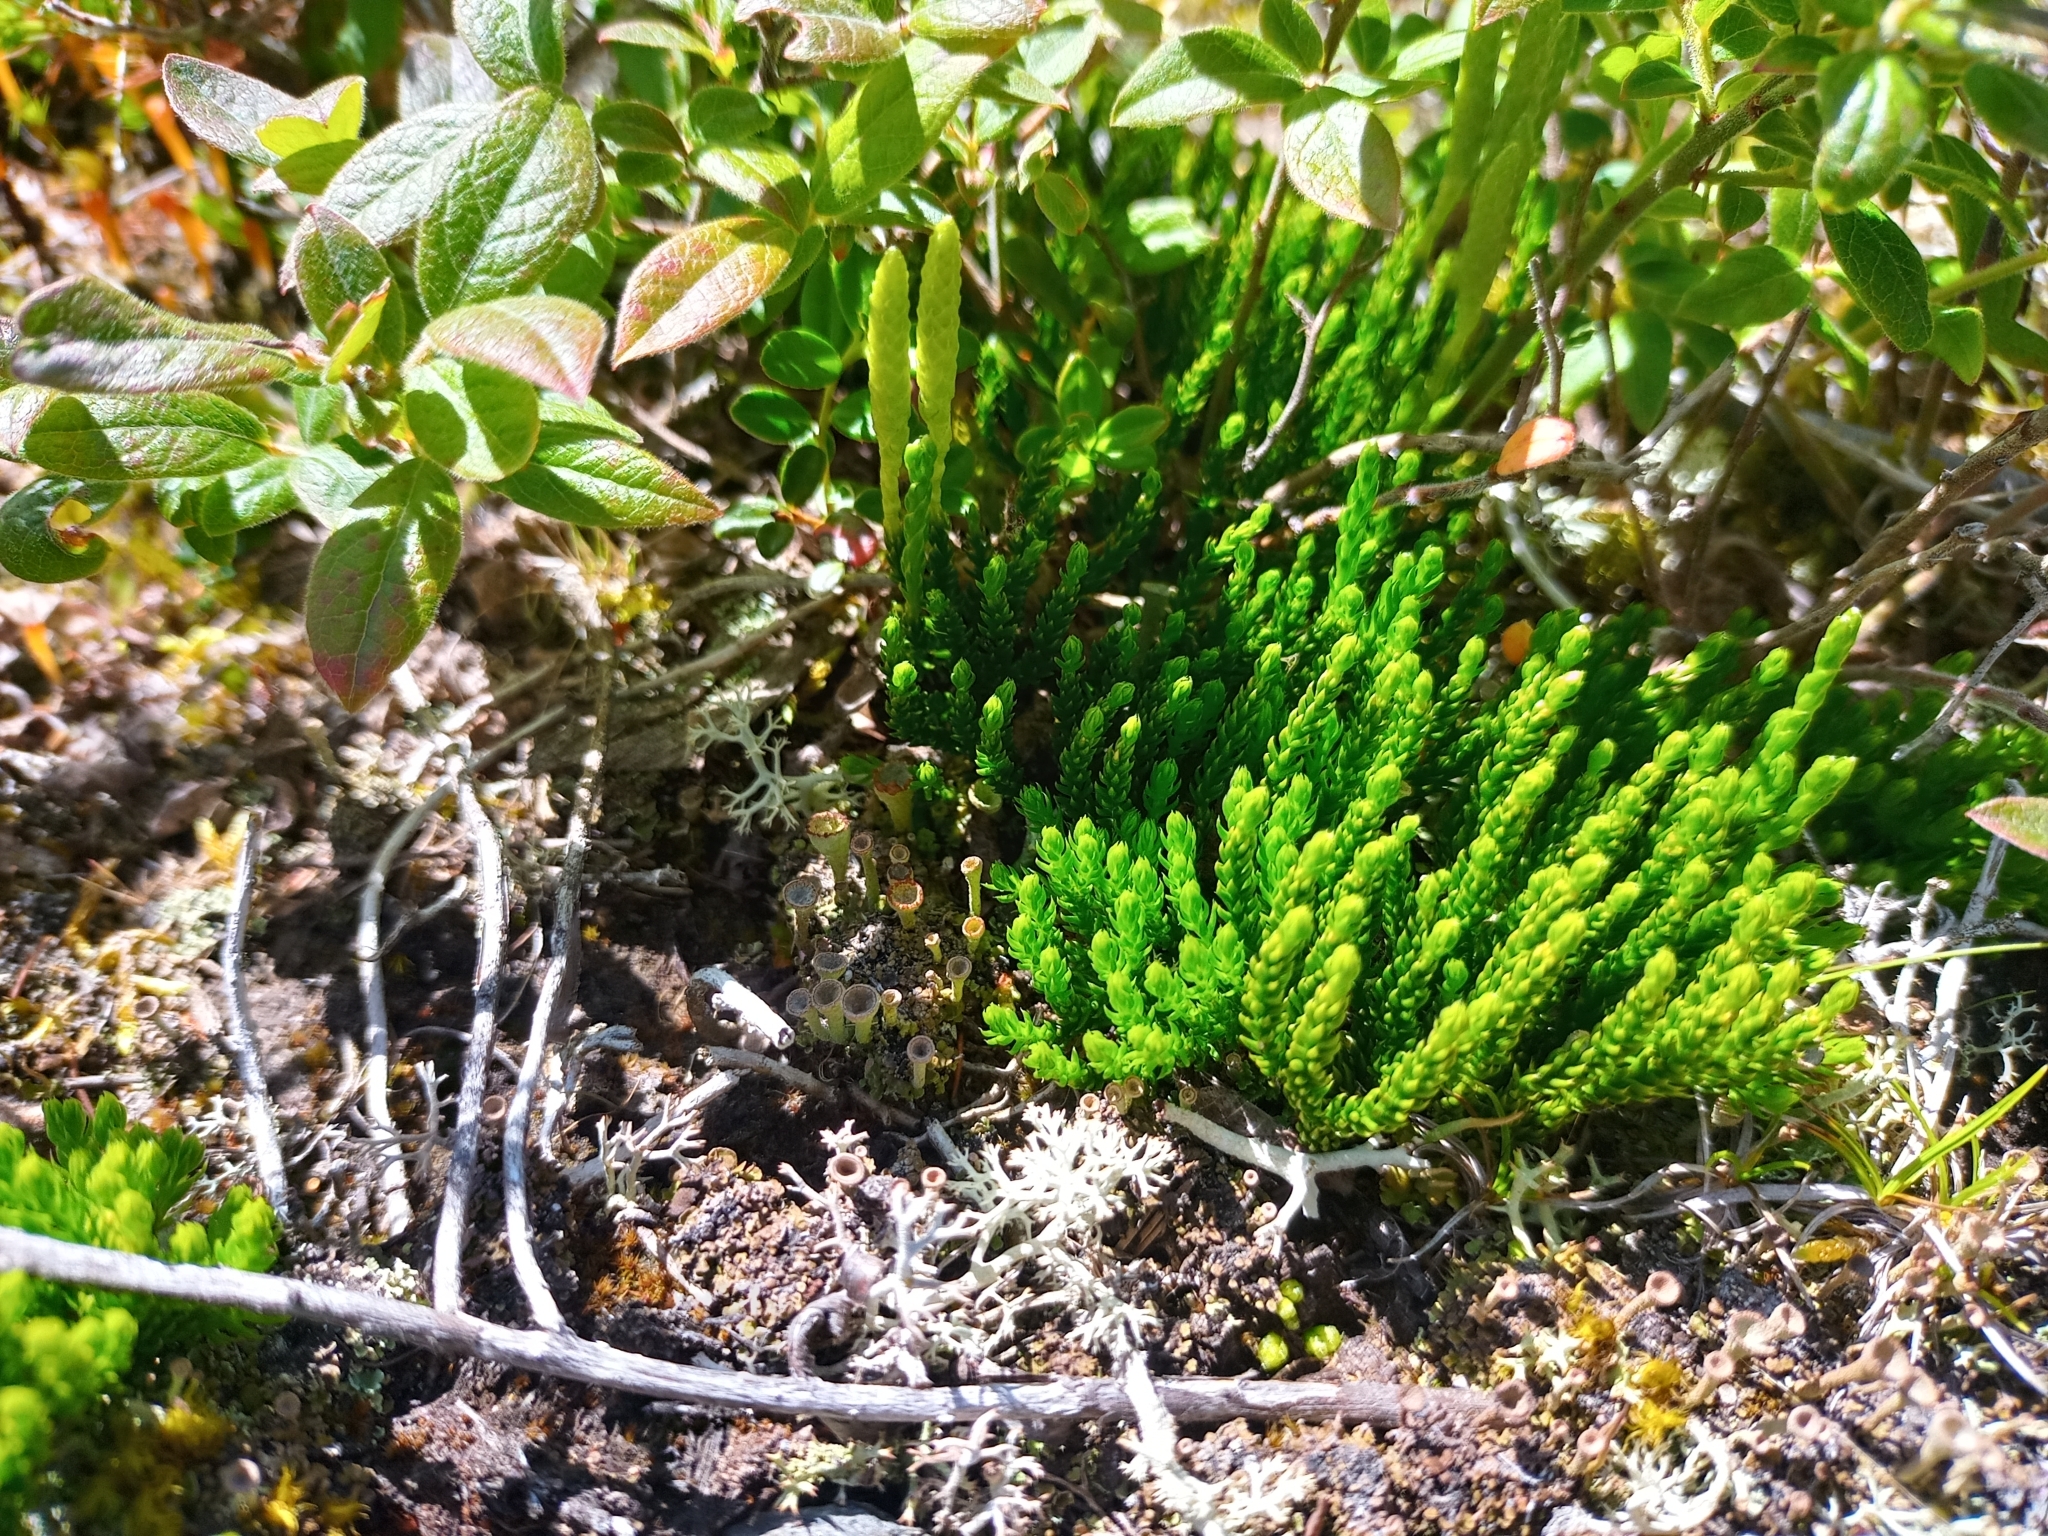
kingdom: Plantae
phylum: Tracheophyta
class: Lycopodiopsida
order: Lycopodiales
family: Lycopodiaceae
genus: Diphasiastrum
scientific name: Diphasiastrum sitchense
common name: Alaska clubmoss
